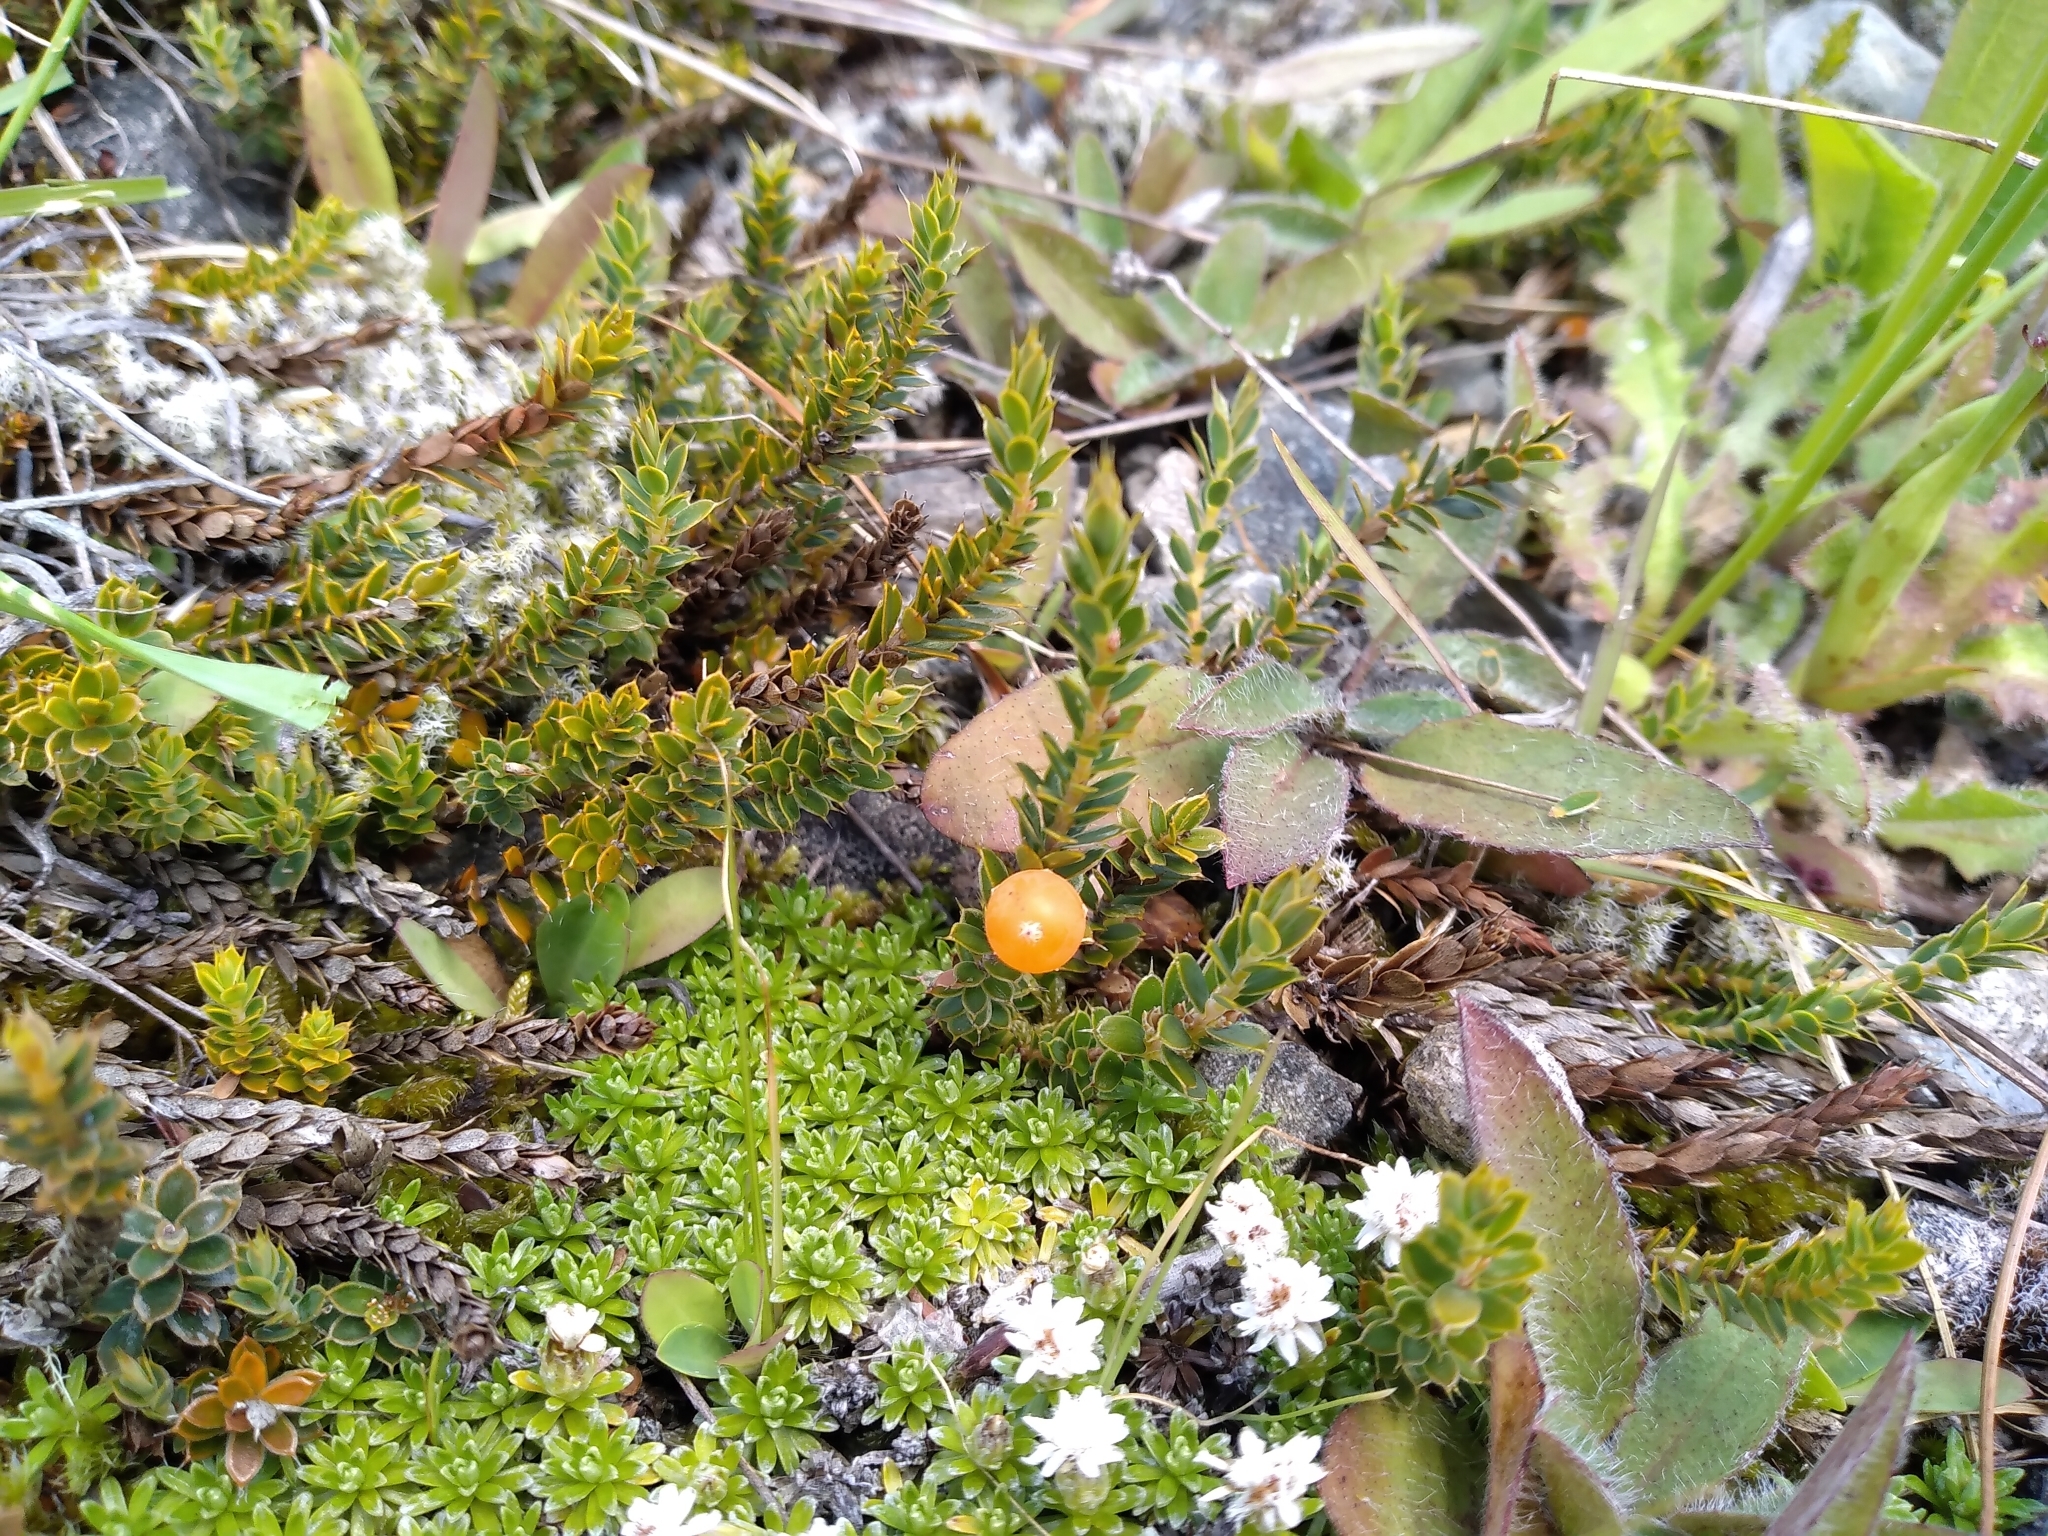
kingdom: Plantae
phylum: Tracheophyta
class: Magnoliopsida
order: Ericales
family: Ericaceae
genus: Styphelia
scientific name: Styphelia nesophila
